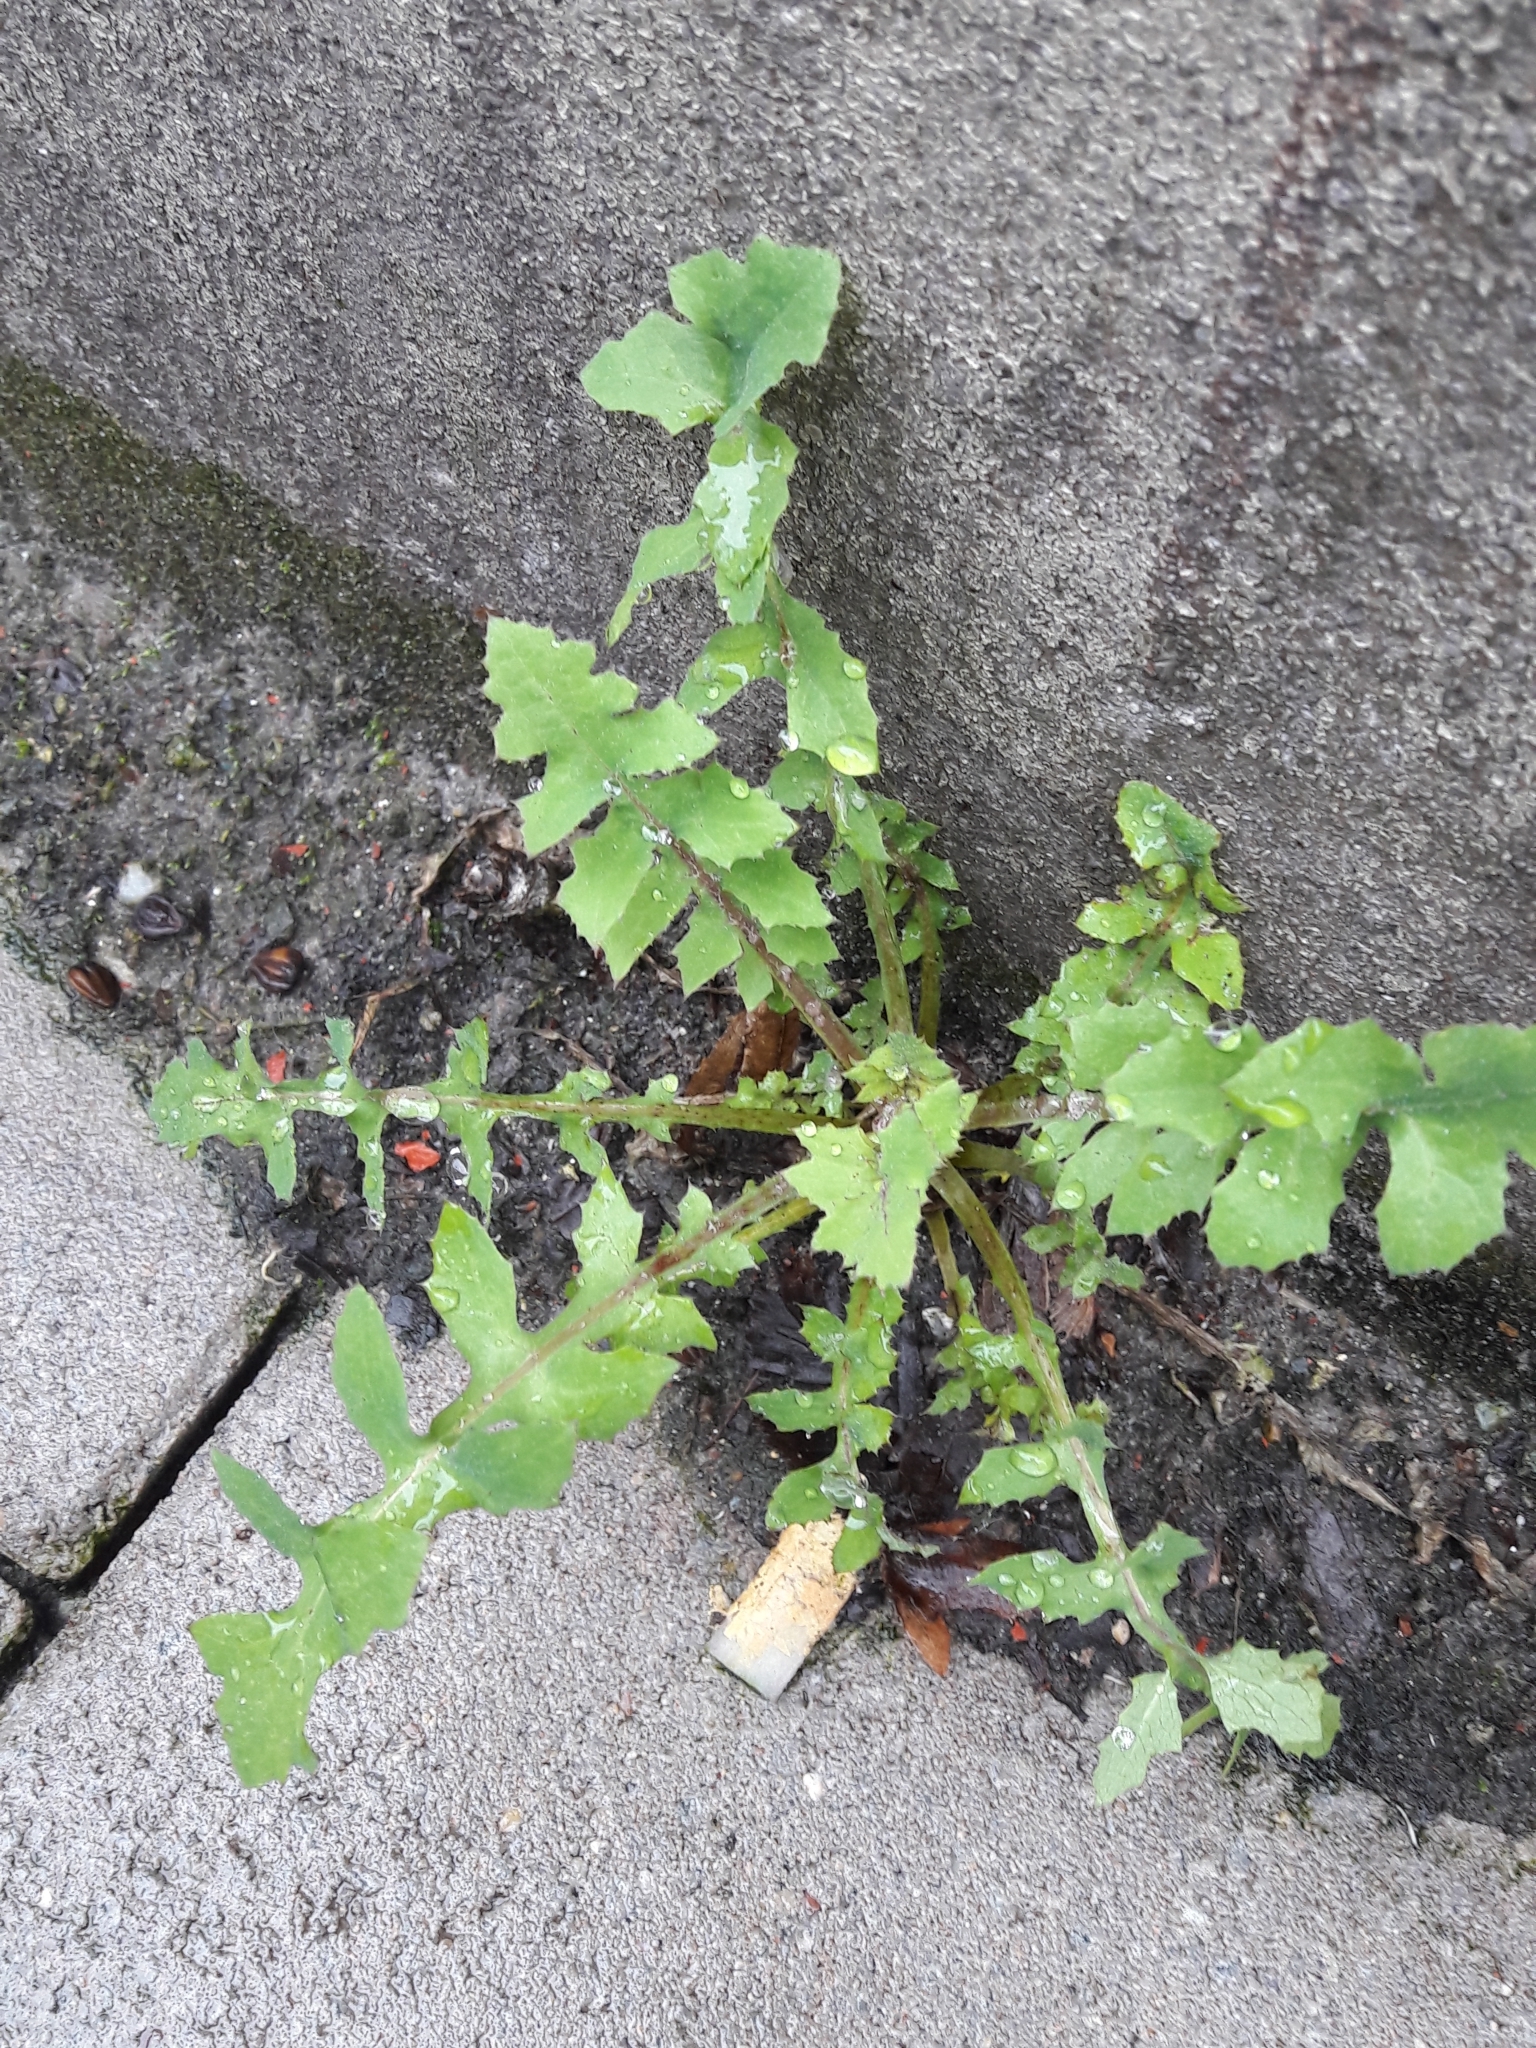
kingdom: Plantae
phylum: Tracheophyta
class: Magnoliopsida
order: Asterales
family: Asteraceae
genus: Sonchus
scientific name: Sonchus oleraceus
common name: Common sowthistle
